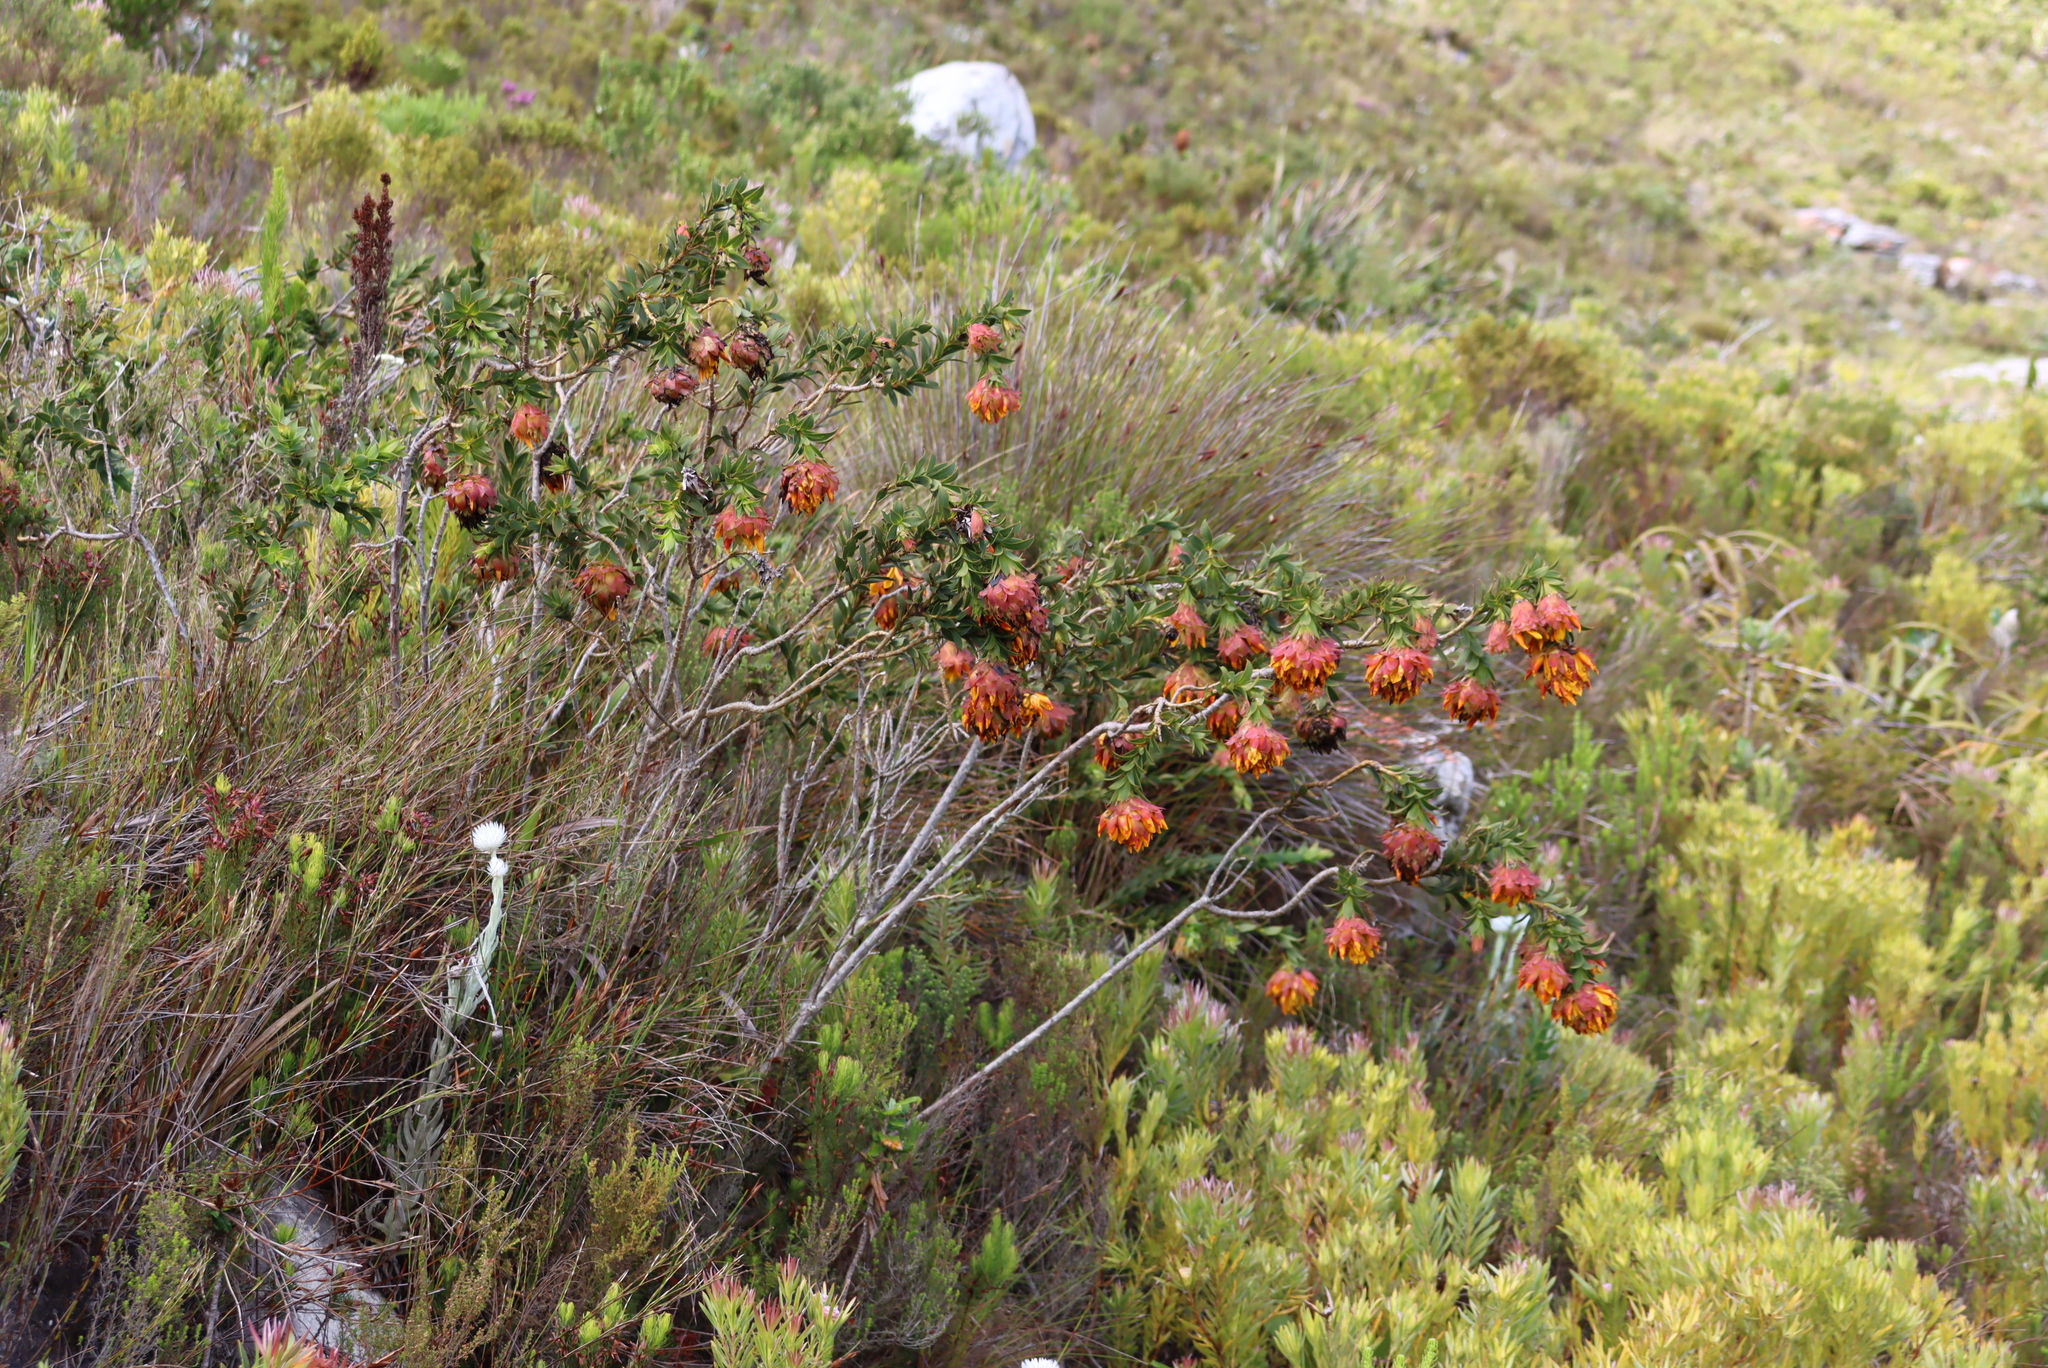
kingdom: Plantae
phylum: Tracheophyta
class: Magnoliopsida
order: Fabales
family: Fabaceae
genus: Liparia
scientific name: Liparia splendens
